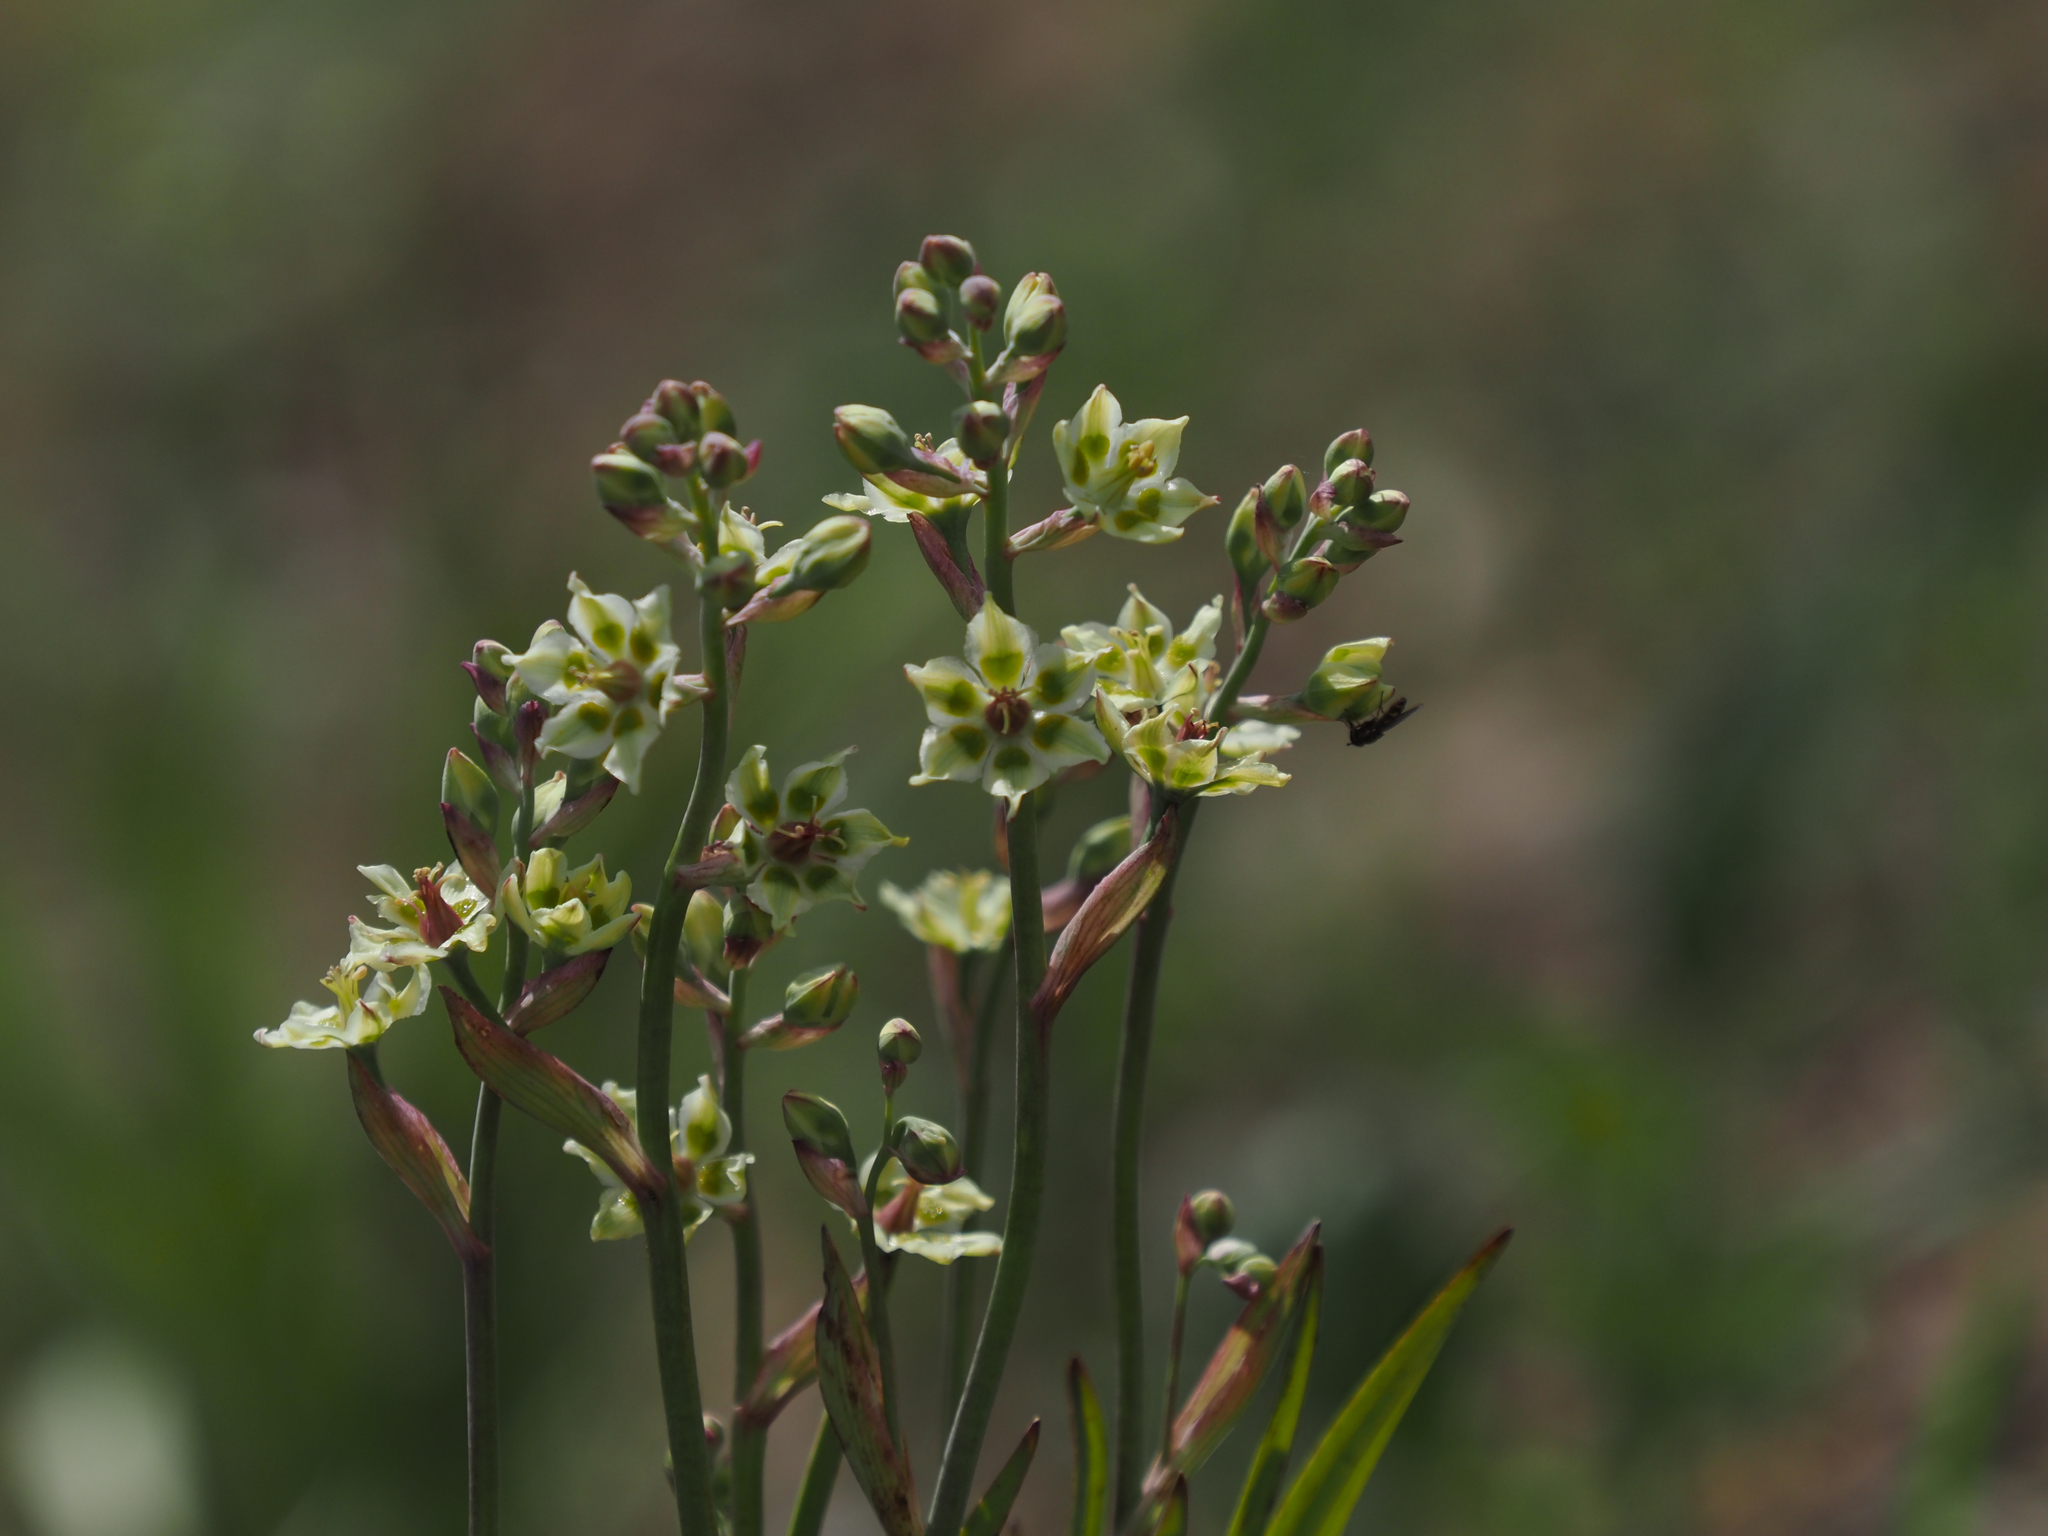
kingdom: Plantae
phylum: Tracheophyta
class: Liliopsida
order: Liliales
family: Melanthiaceae
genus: Anticlea
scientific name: Anticlea elegans
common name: Mountain death camas
